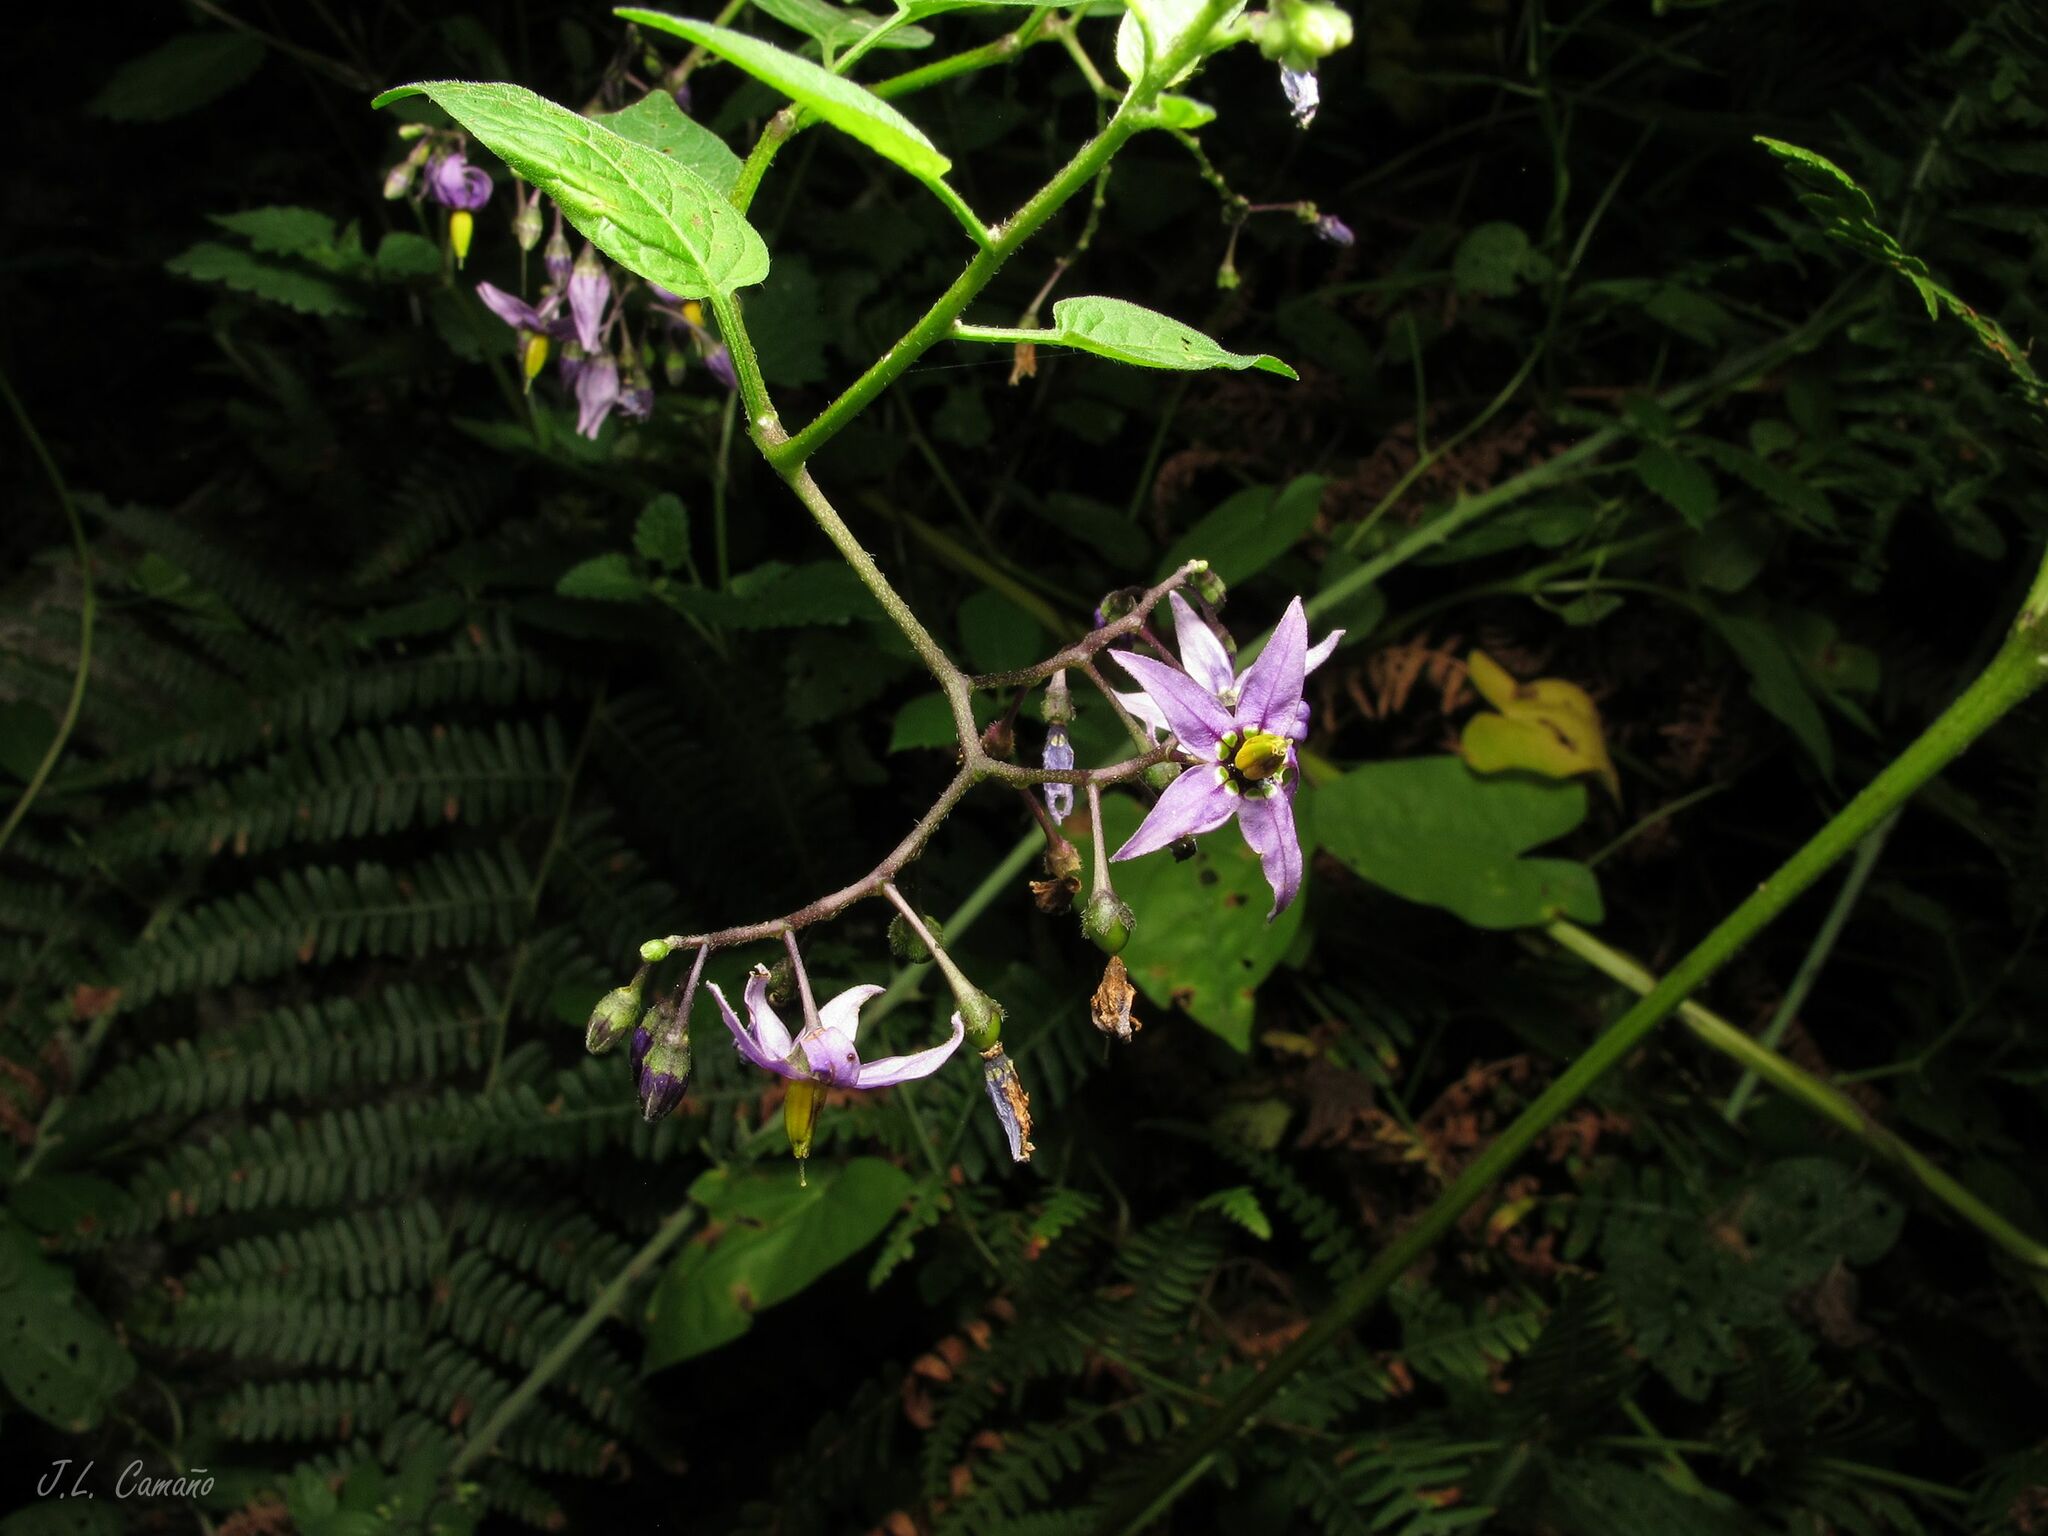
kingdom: Plantae
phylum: Tracheophyta
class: Magnoliopsida
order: Solanales
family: Solanaceae
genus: Solanum
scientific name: Solanum dulcamara
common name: Climbing nightshade
